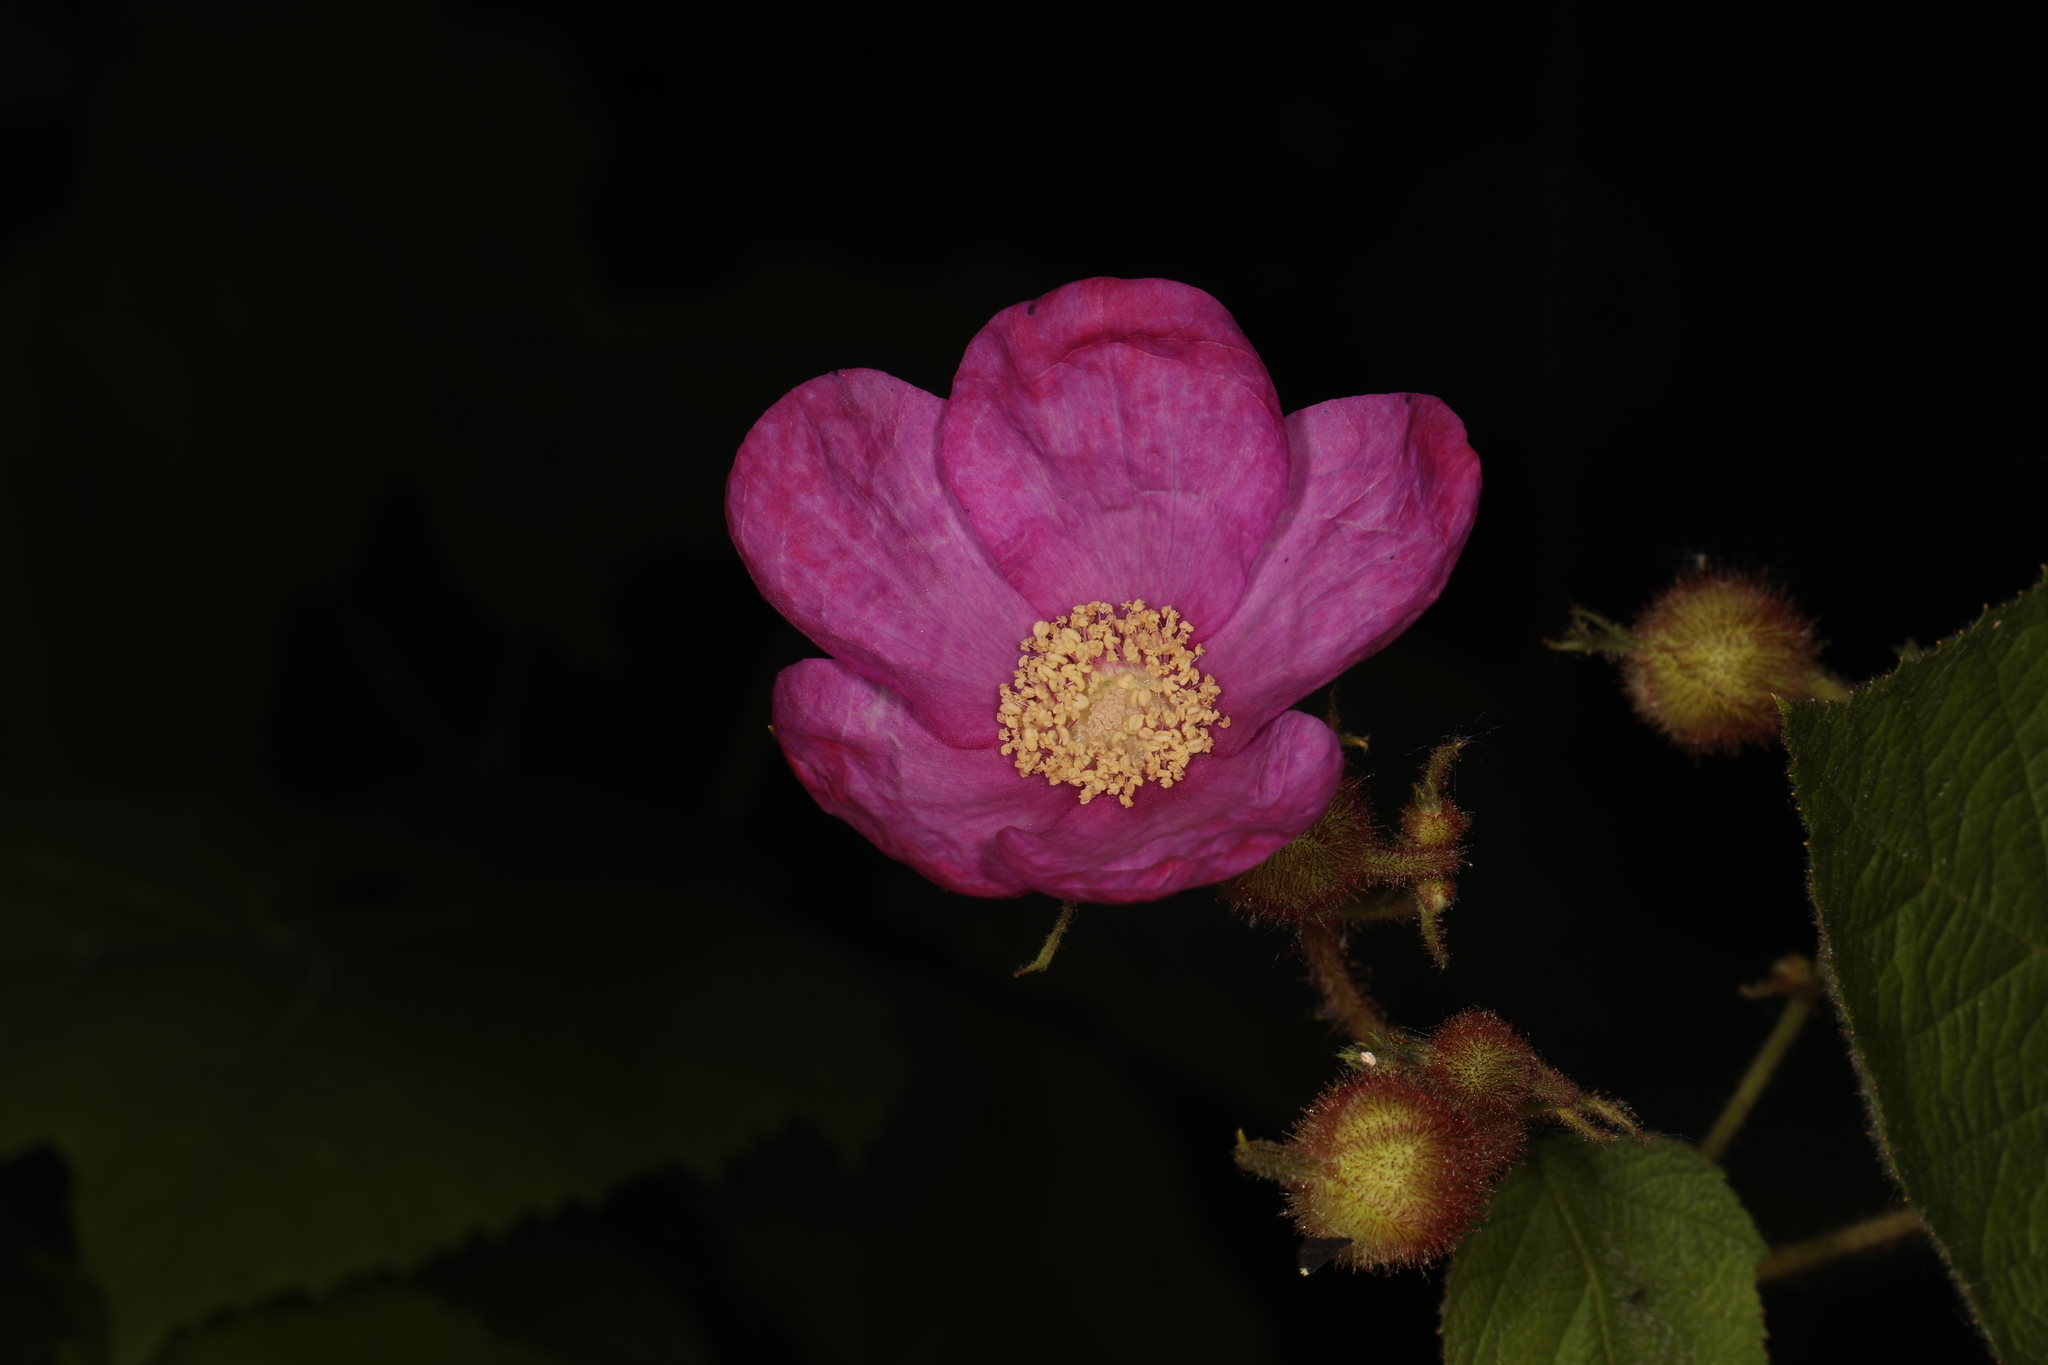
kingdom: Plantae
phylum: Tracheophyta
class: Magnoliopsida
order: Rosales
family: Rosaceae
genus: Rubus
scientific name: Rubus odoratus
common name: Purple-flowered raspberry
